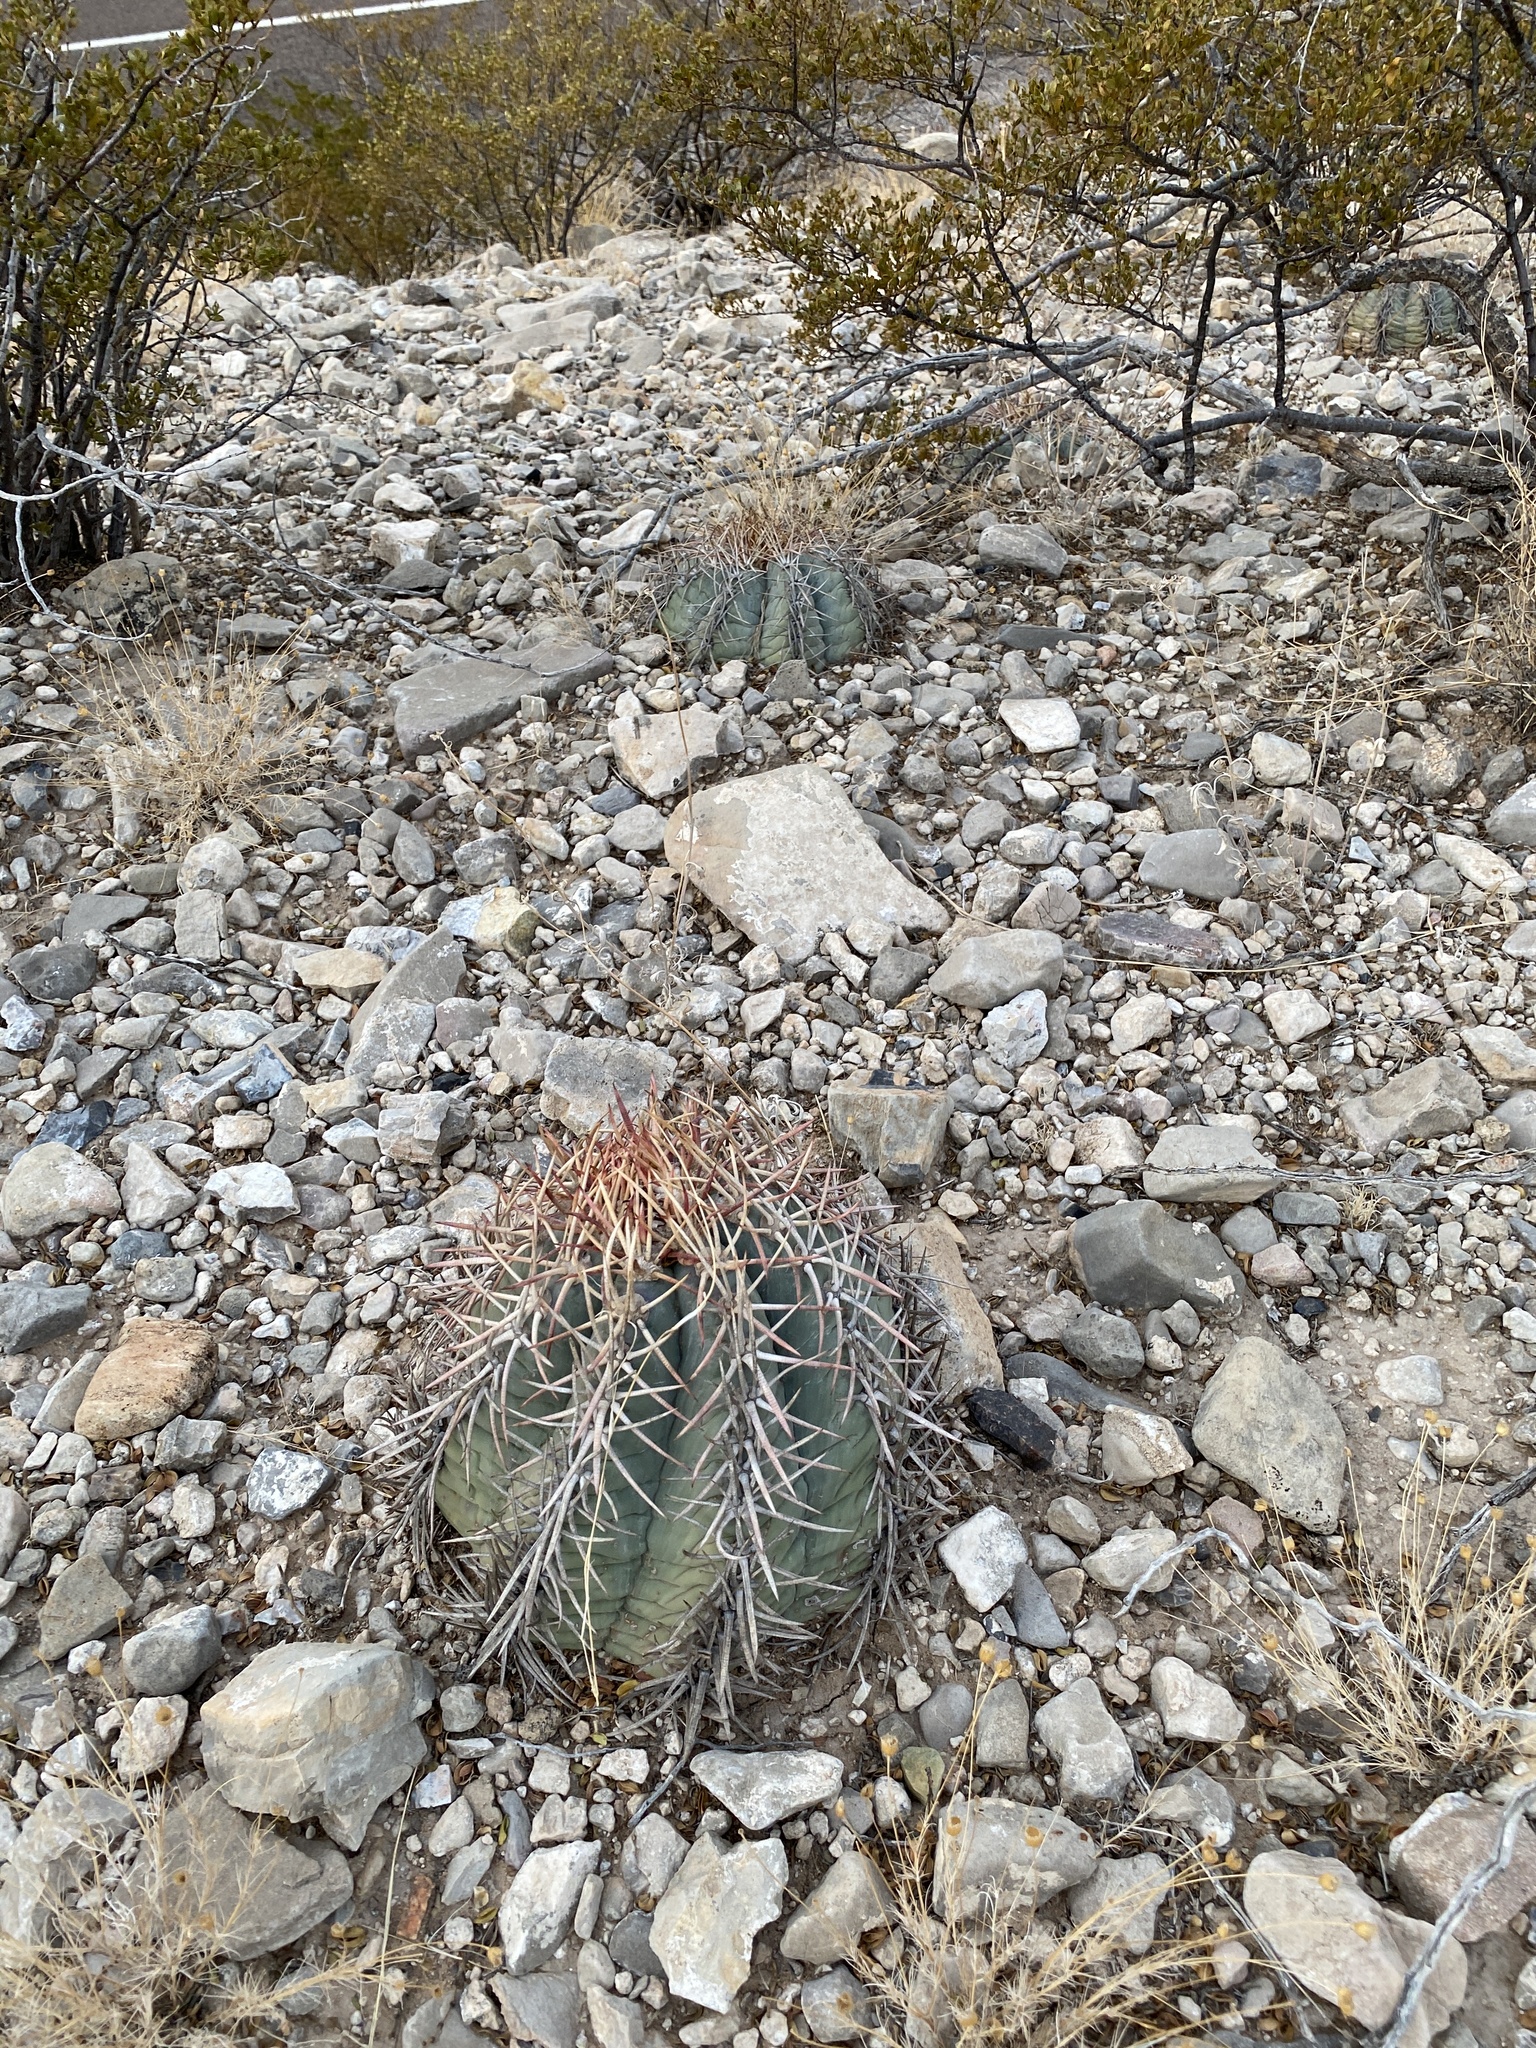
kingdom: Plantae
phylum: Tracheophyta
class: Magnoliopsida
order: Caryophyllales
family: Cactaceae
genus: Echinocactus
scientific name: Echinocactus horizonthalonius
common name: Devilshead
